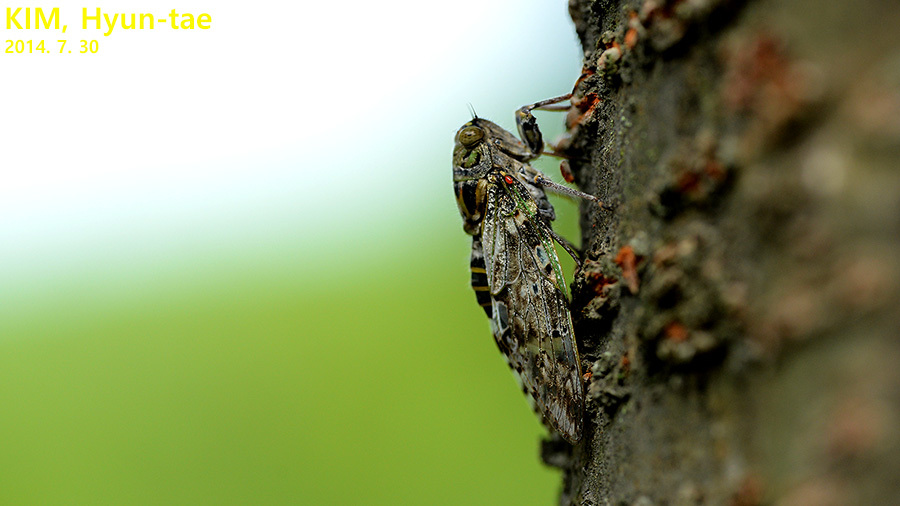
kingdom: Animalia
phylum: Arthropoda
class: Insecta
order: Hemiptera
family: Cicadidae
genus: Platypleura
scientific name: Platypleura kaempferi
